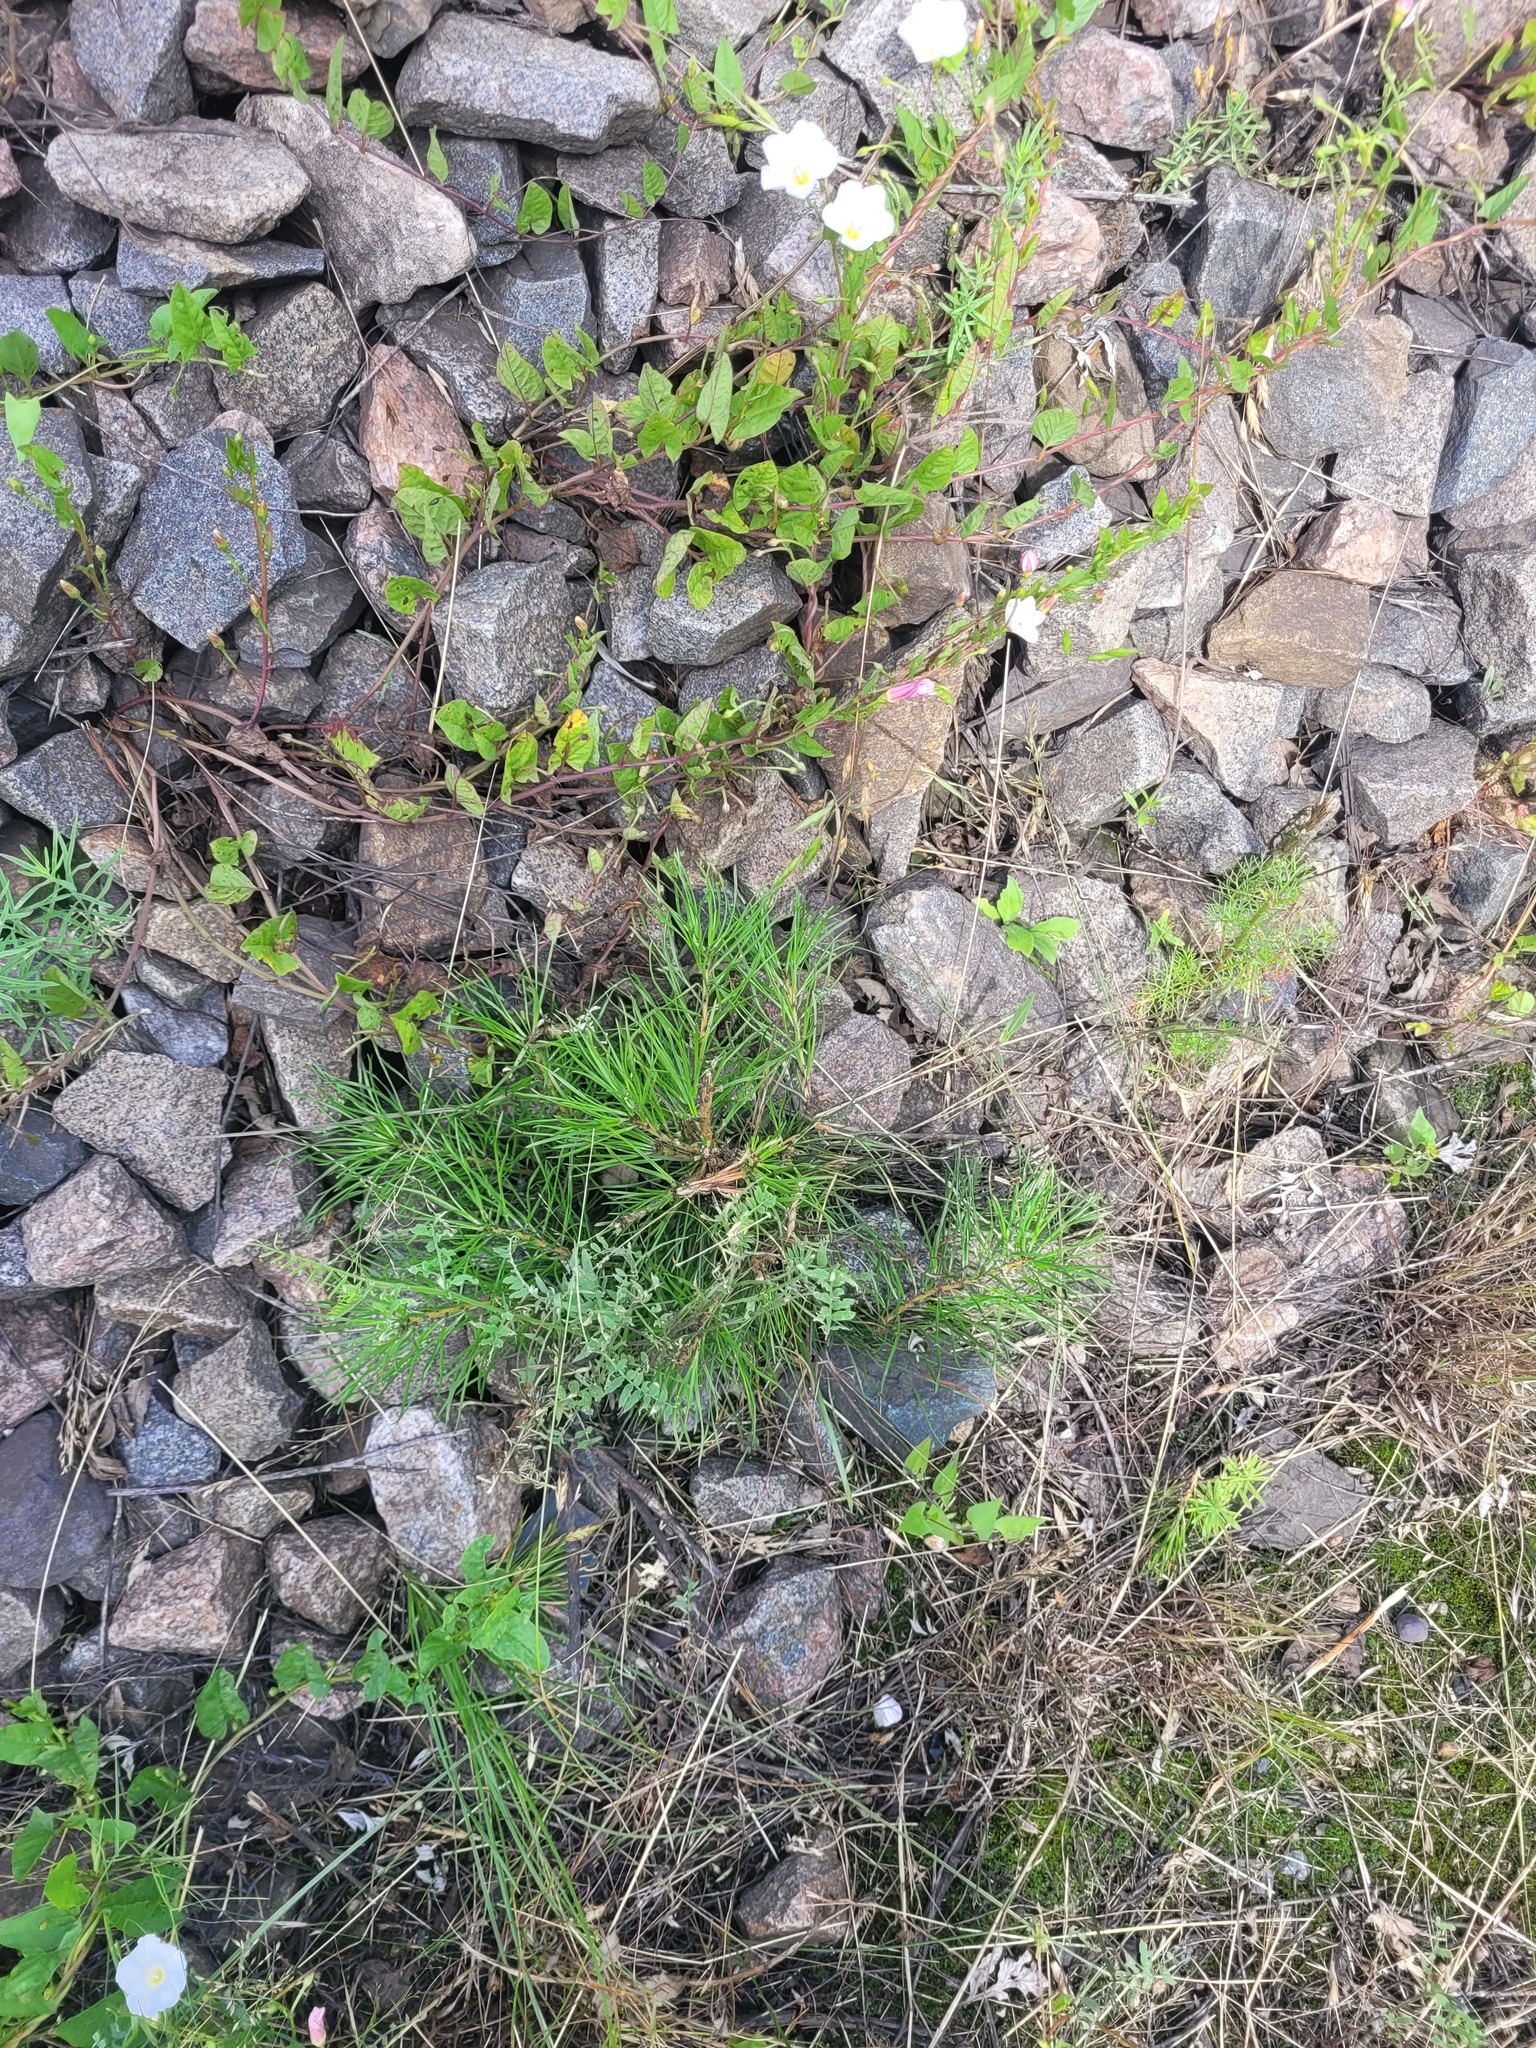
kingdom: Plantae
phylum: Tracheophyta
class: Pinopsida
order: Pinales
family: Pinaceae
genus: Pinus
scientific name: Pinus sylvestris
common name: Scots pine
